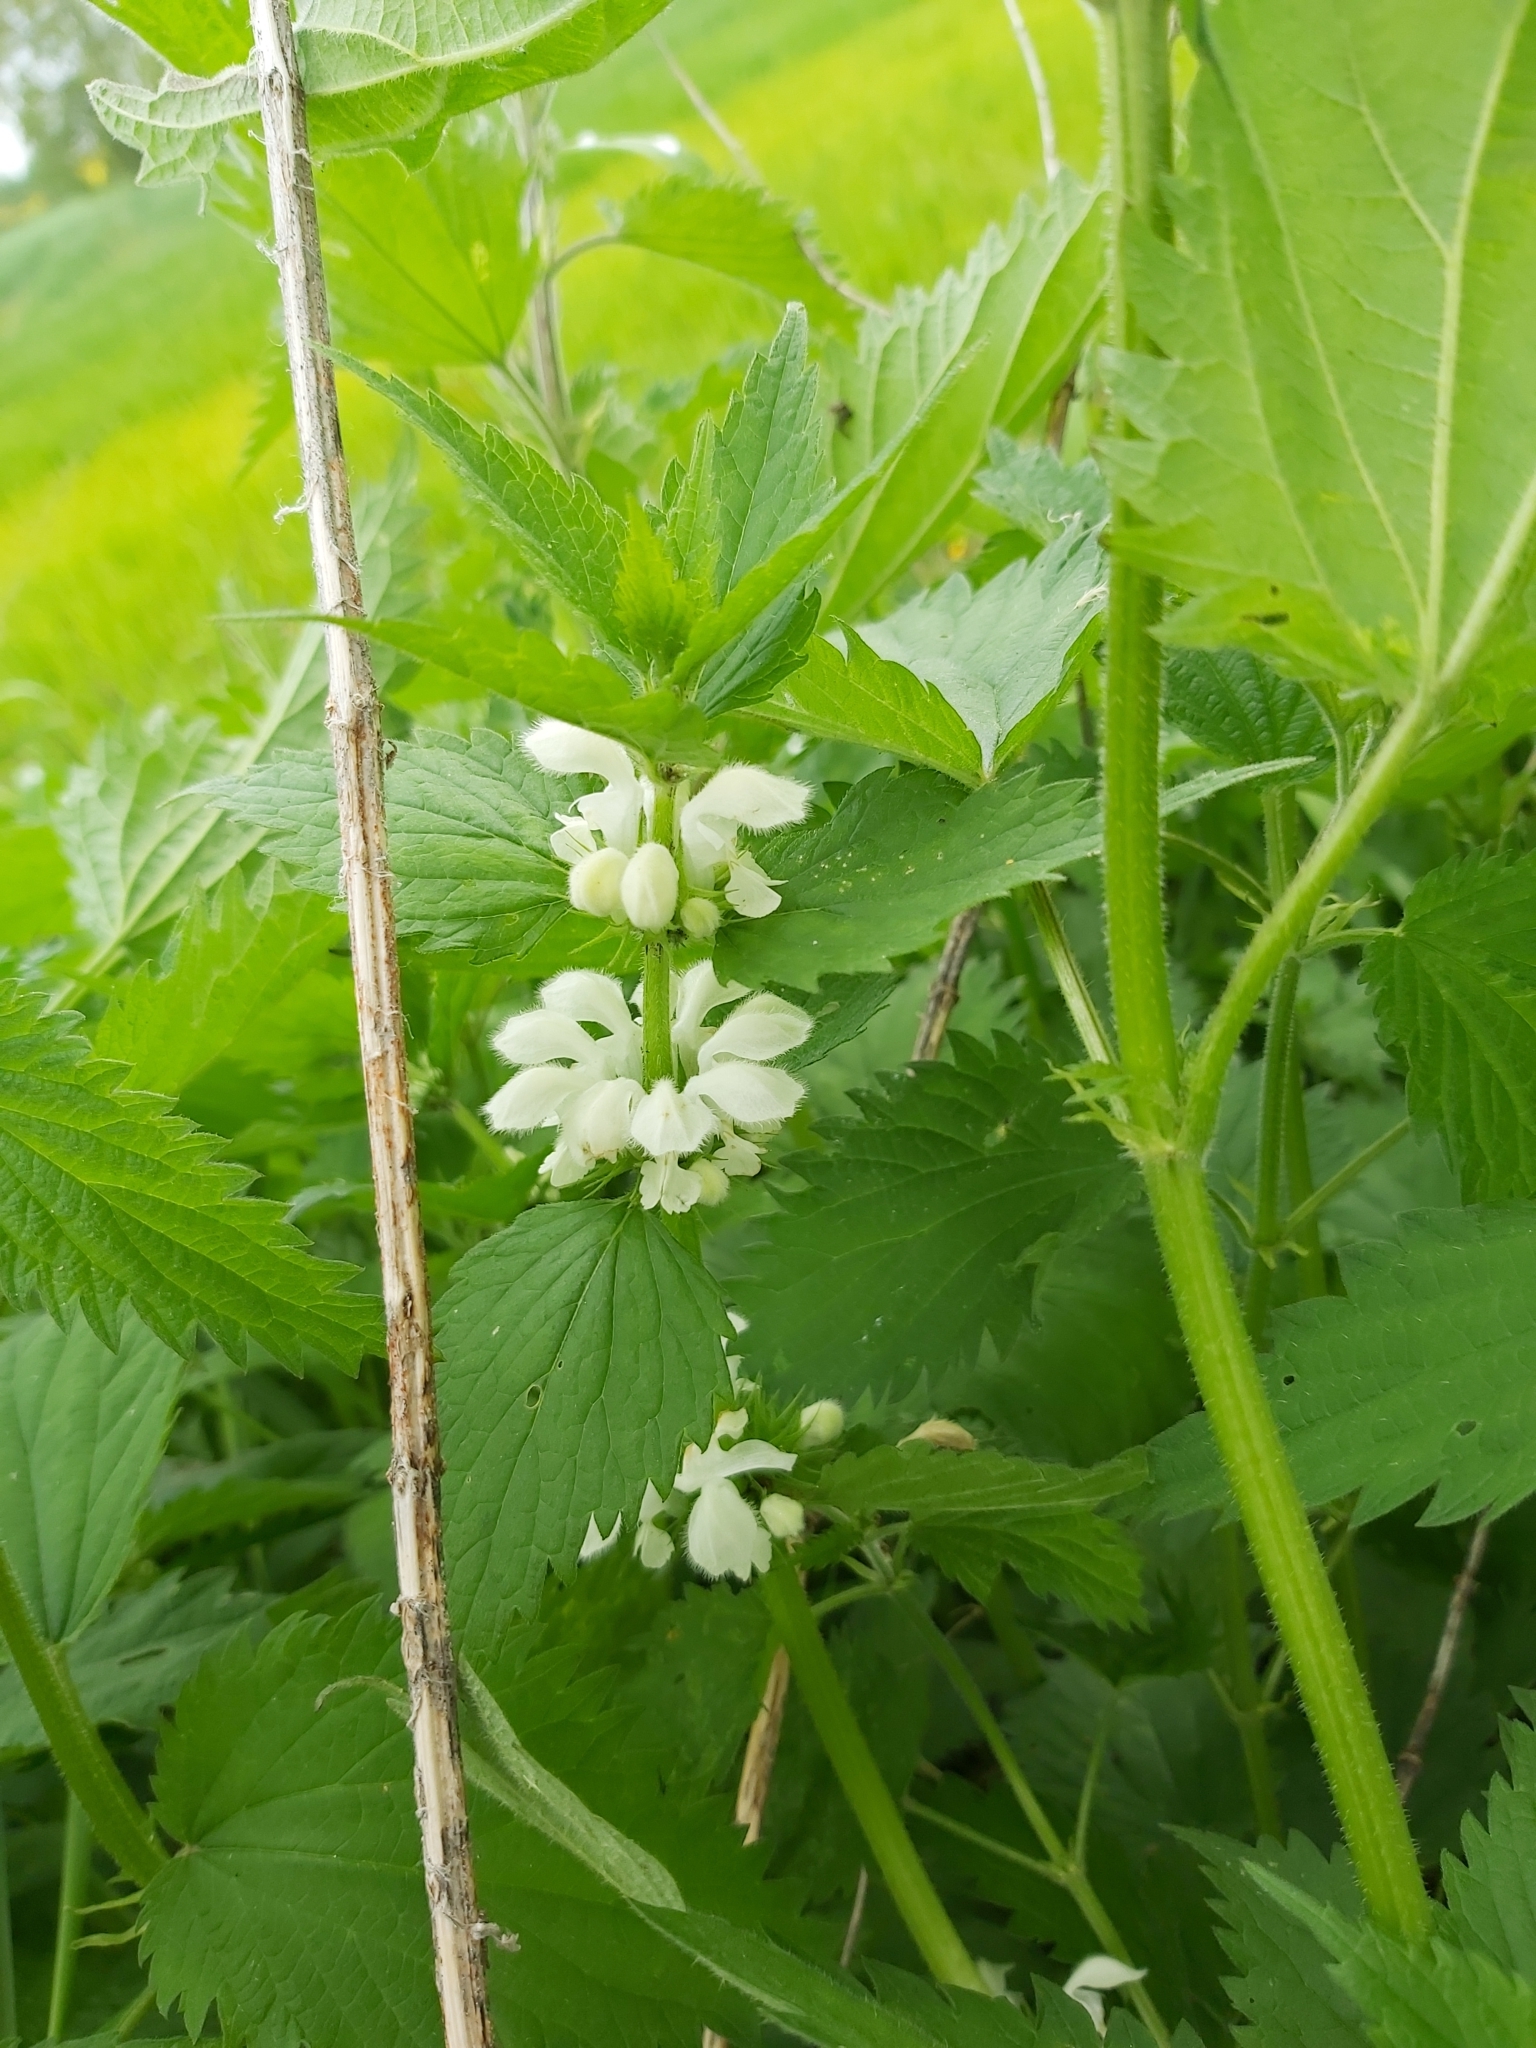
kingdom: Plantae
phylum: Tracheophyta
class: Magnoliopsida
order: Lamiales
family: Lamiaceae
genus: Lamium
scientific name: Lamium album
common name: White dead-nettle
